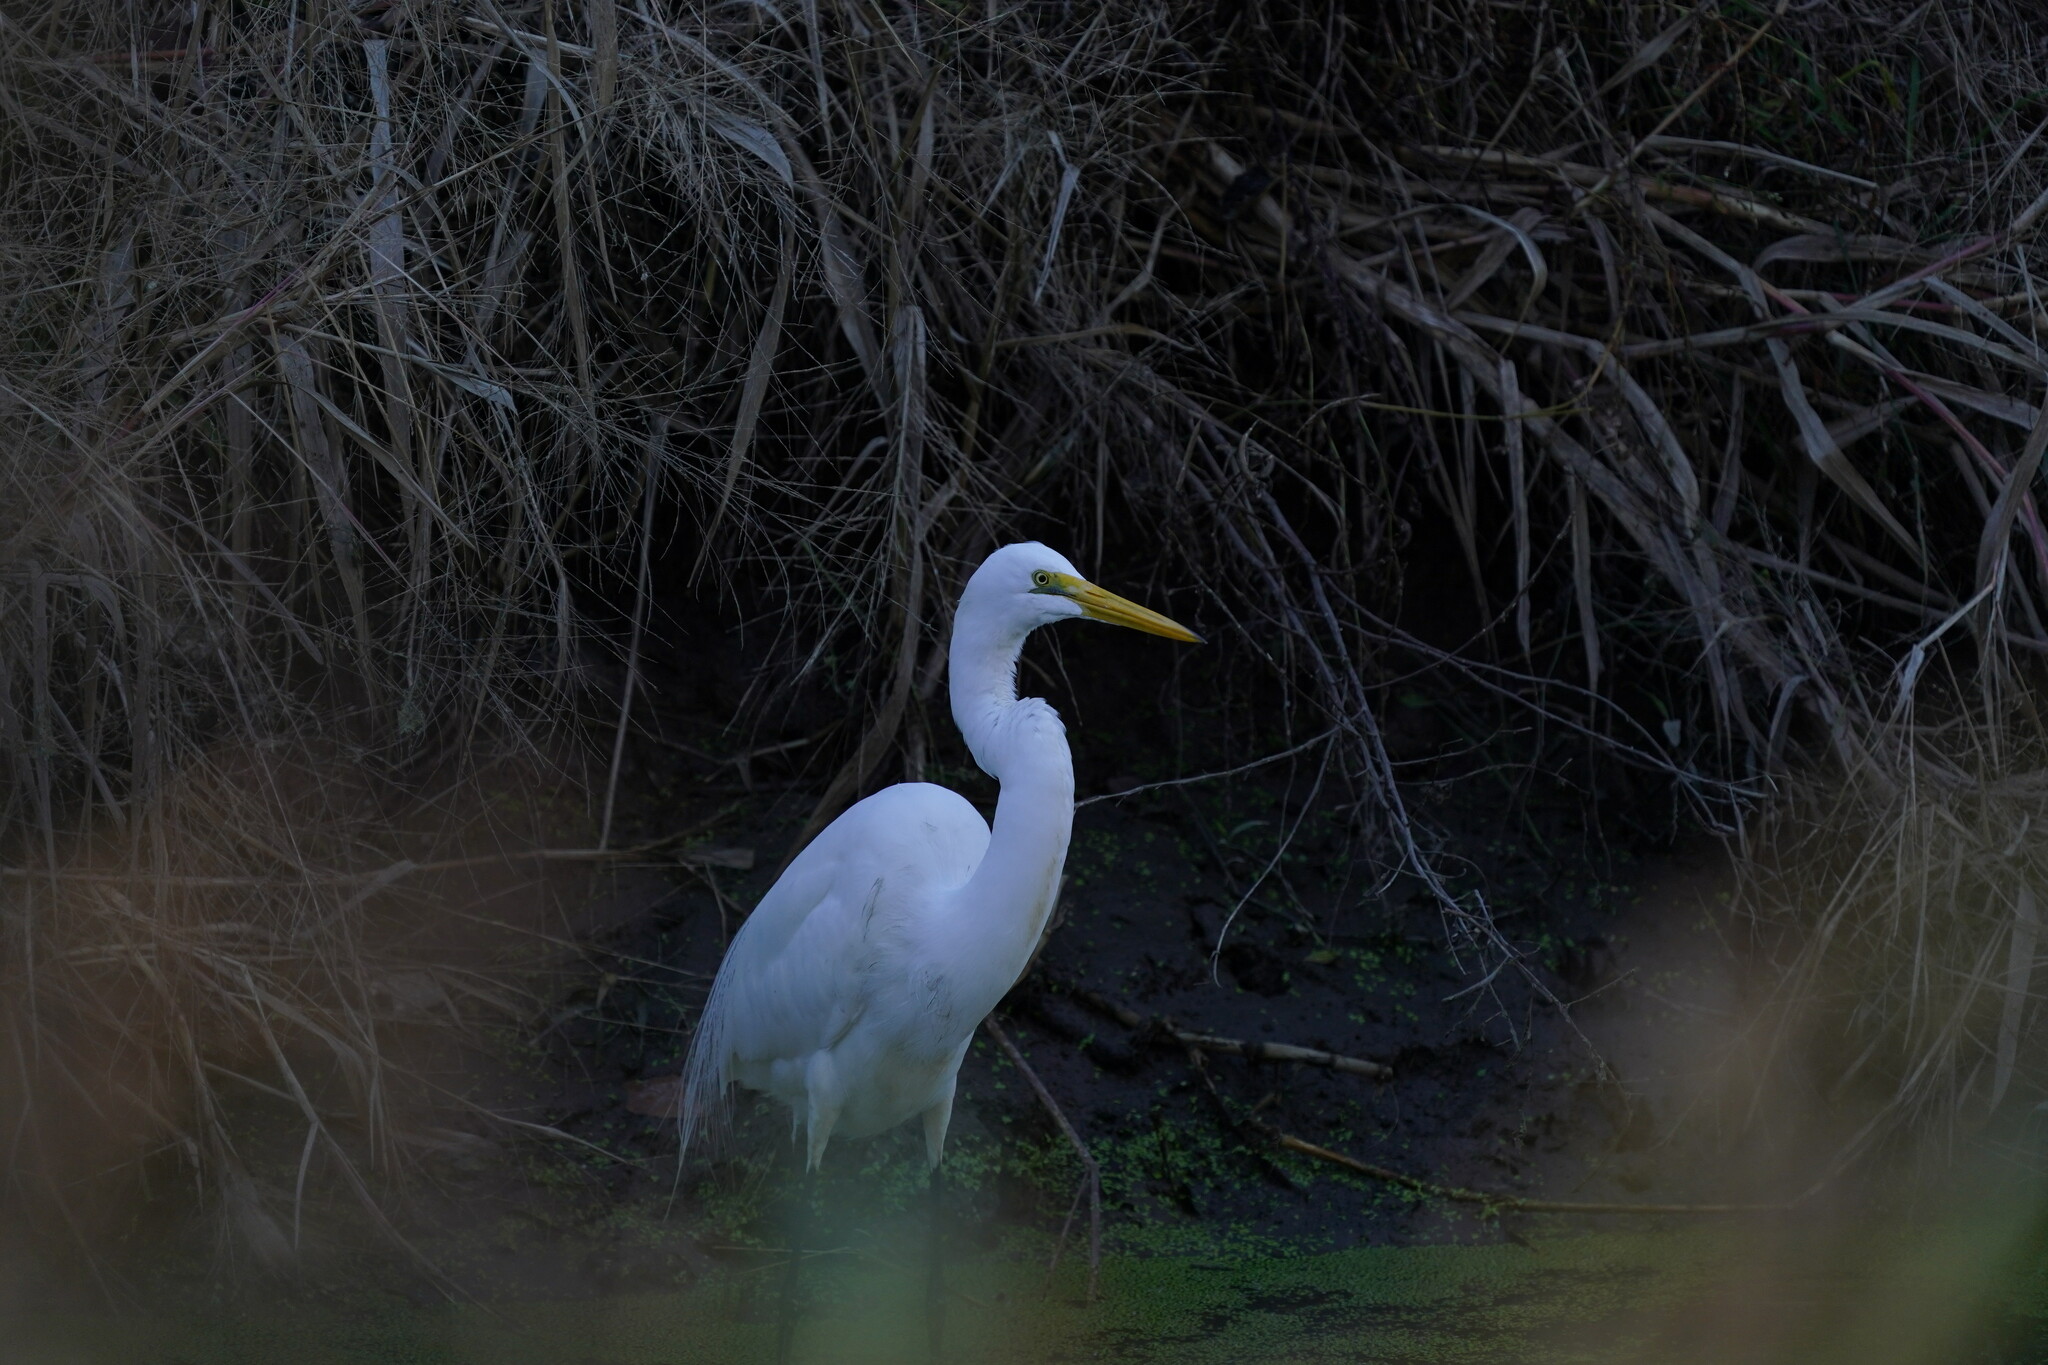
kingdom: Animalia
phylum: Chordata
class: Aves
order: Pelecaniformes
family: Ardeidae
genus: Ardea
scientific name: Ardea alba
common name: Great egret
